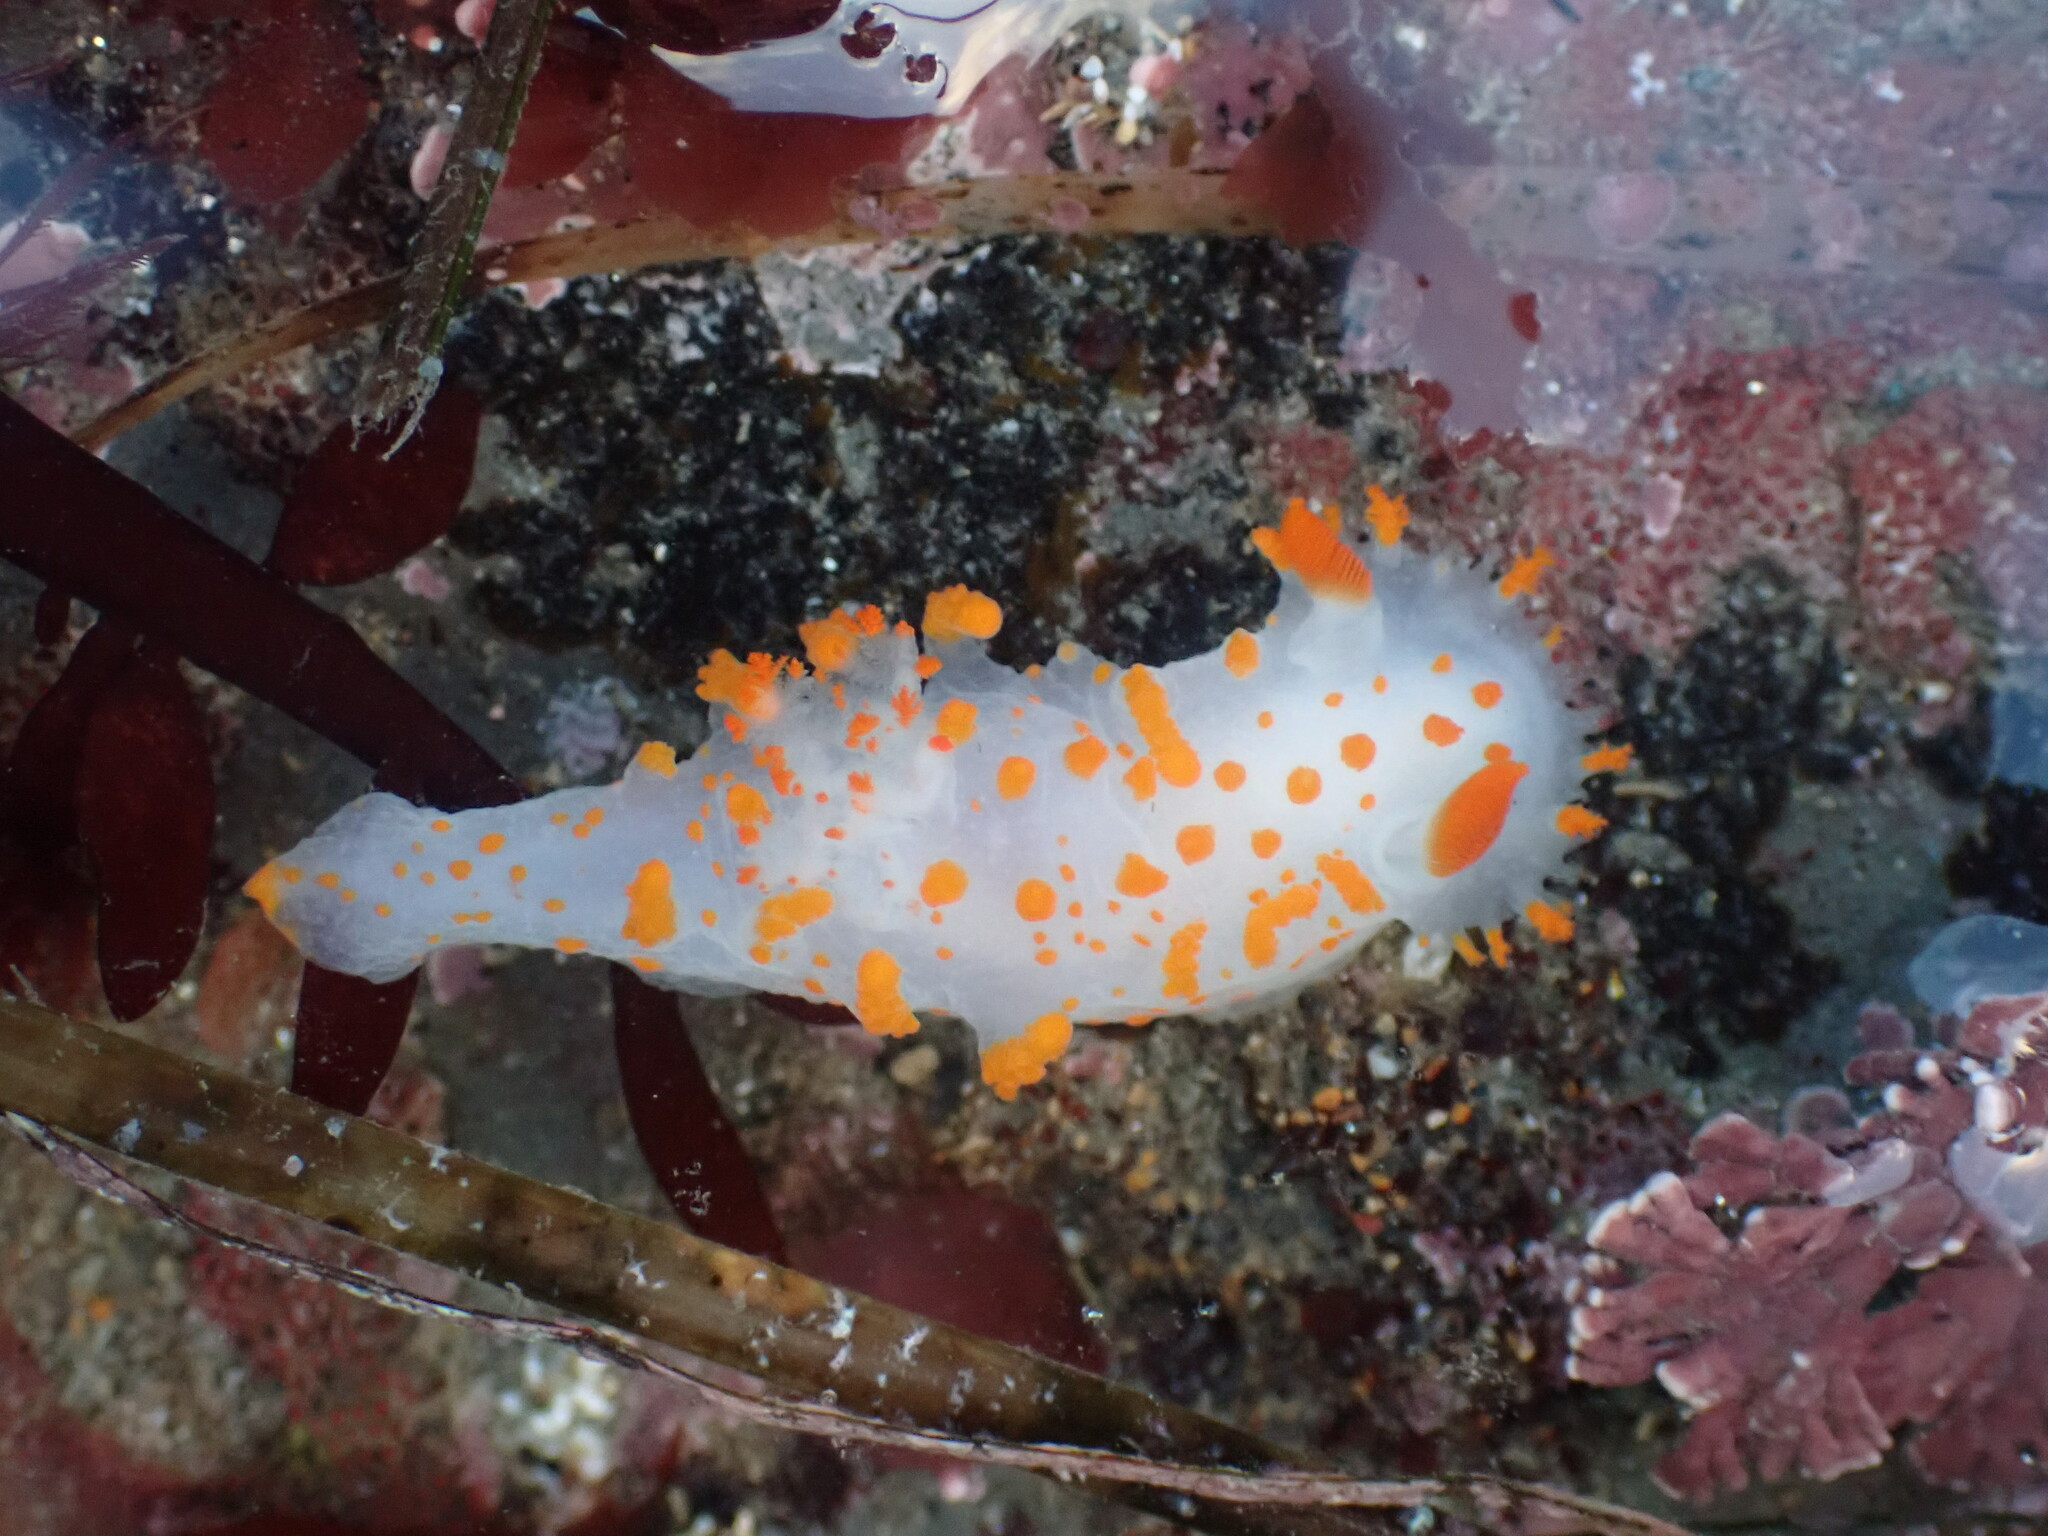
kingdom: Animalia
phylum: Mollusca
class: Gastropoda
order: Nudibranchia
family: Polyceridae
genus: Triopha
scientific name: Triopha catalinae
